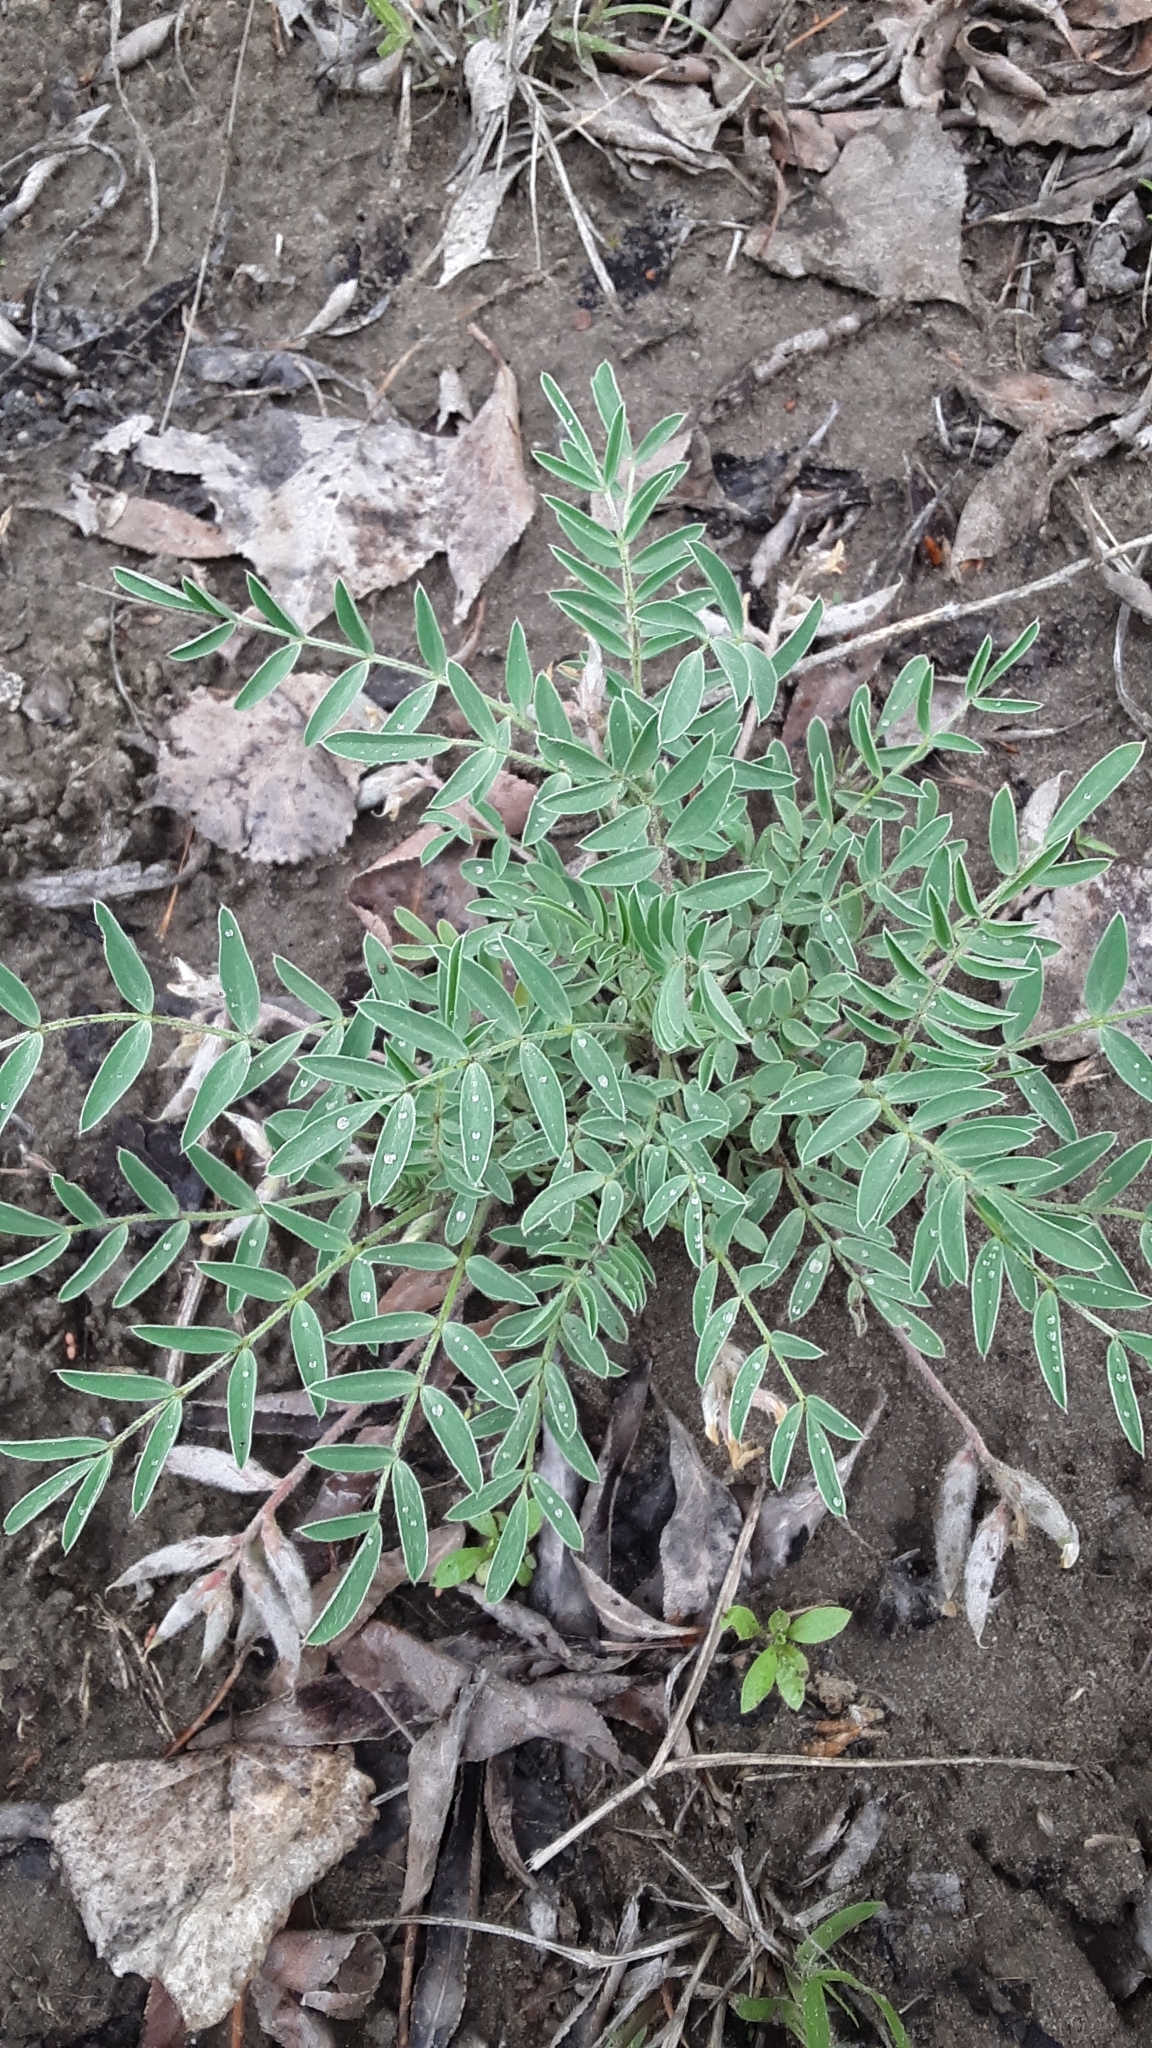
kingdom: Plantae
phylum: Tracheophyta
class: Magnoliopsida
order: Fabales
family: Fabaceae
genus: Astragalus
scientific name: Astragalus lotiflorus
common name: Lotus milk-vetch
